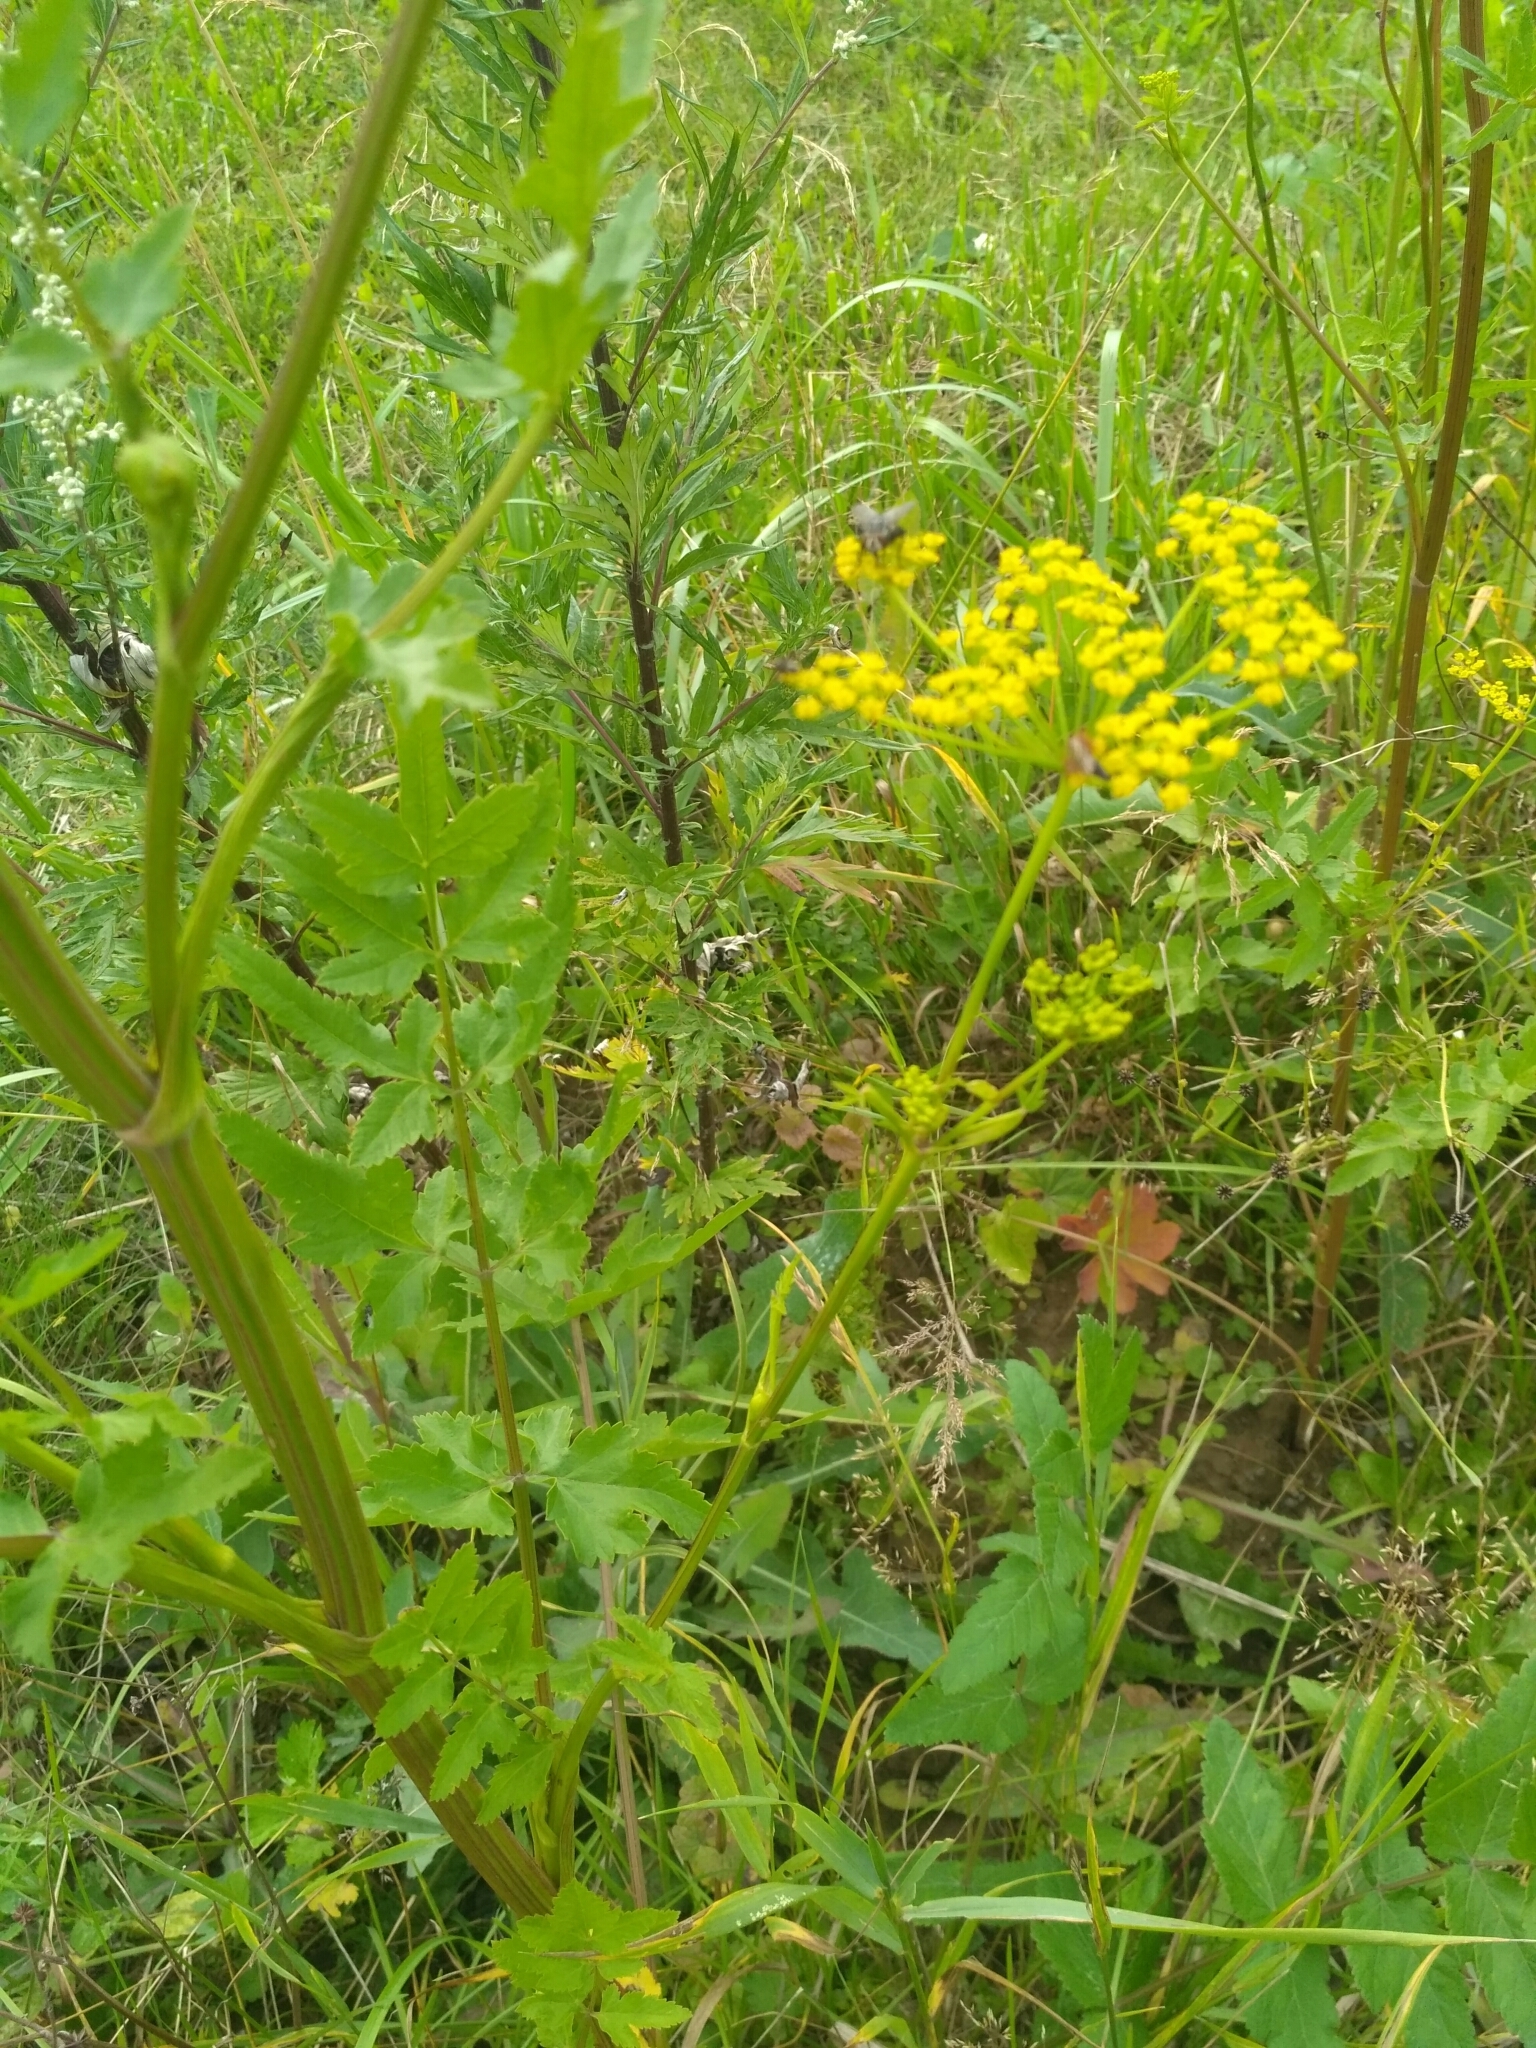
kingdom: Plantae
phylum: Tracheophyta
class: Magnoliopsida
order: Apiales
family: Apiaceae
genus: Pastinaca
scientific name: Pastinaca sativa
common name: Wild parsnip
